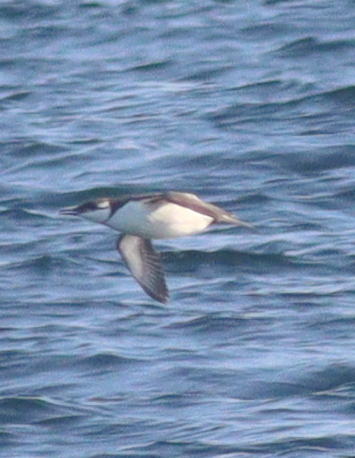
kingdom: Animalia
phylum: Chordata
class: Aves
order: Charadriiformes
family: Alcidae
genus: Uria
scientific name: Uria aalge
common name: Common murre
